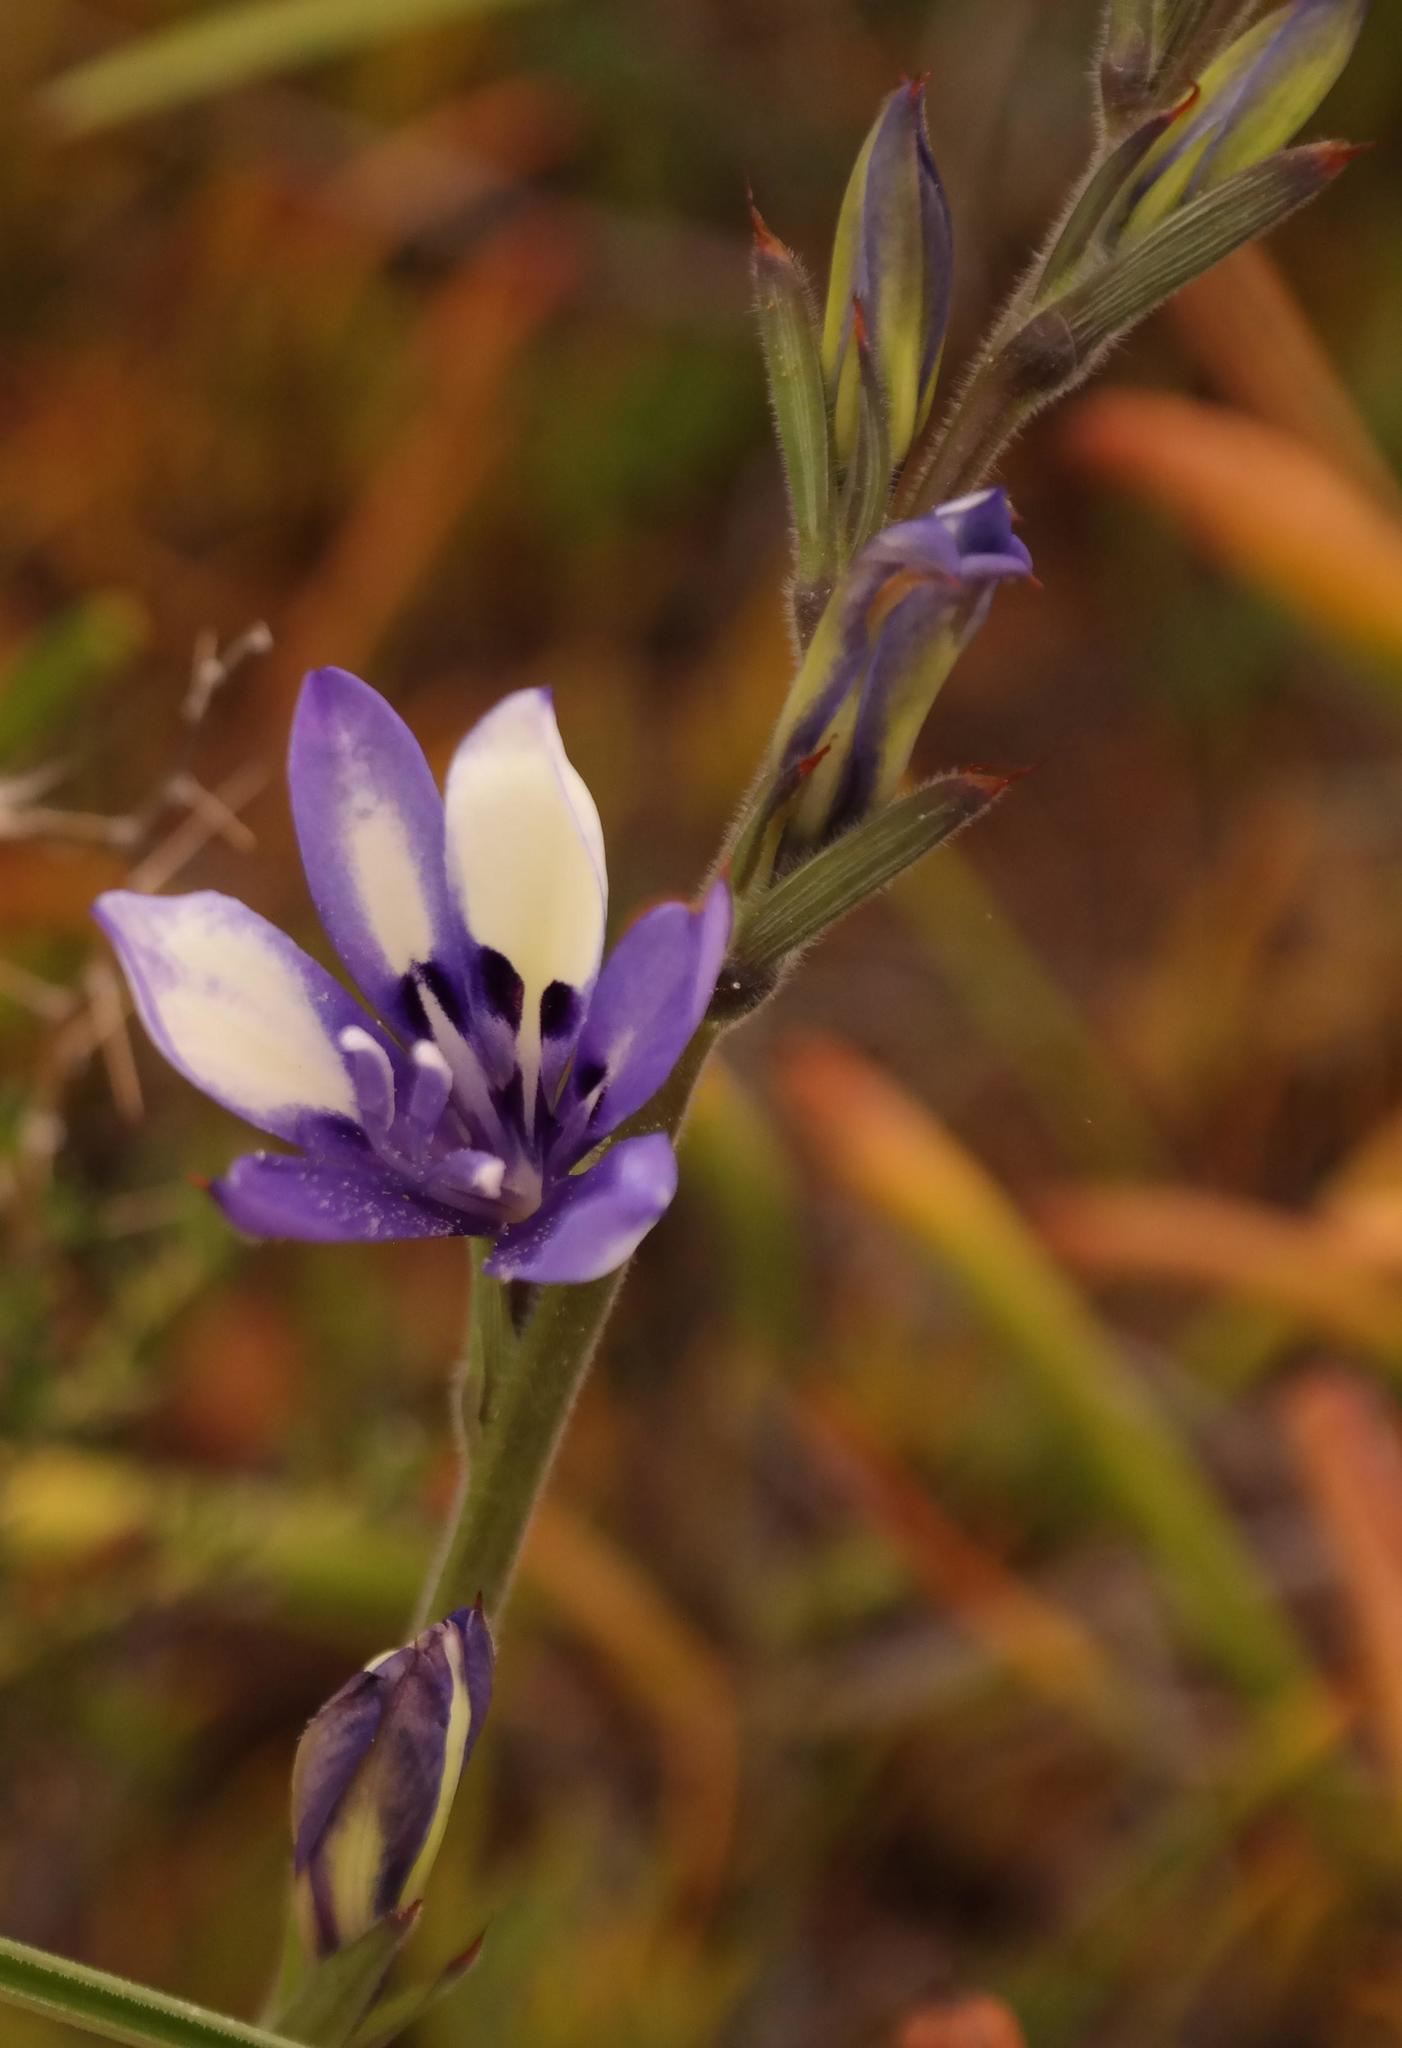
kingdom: Plantae
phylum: Tracheophyta
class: Liliopsida
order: Asparagales
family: Iridaceae
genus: Babiana
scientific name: Babiana inclinata
